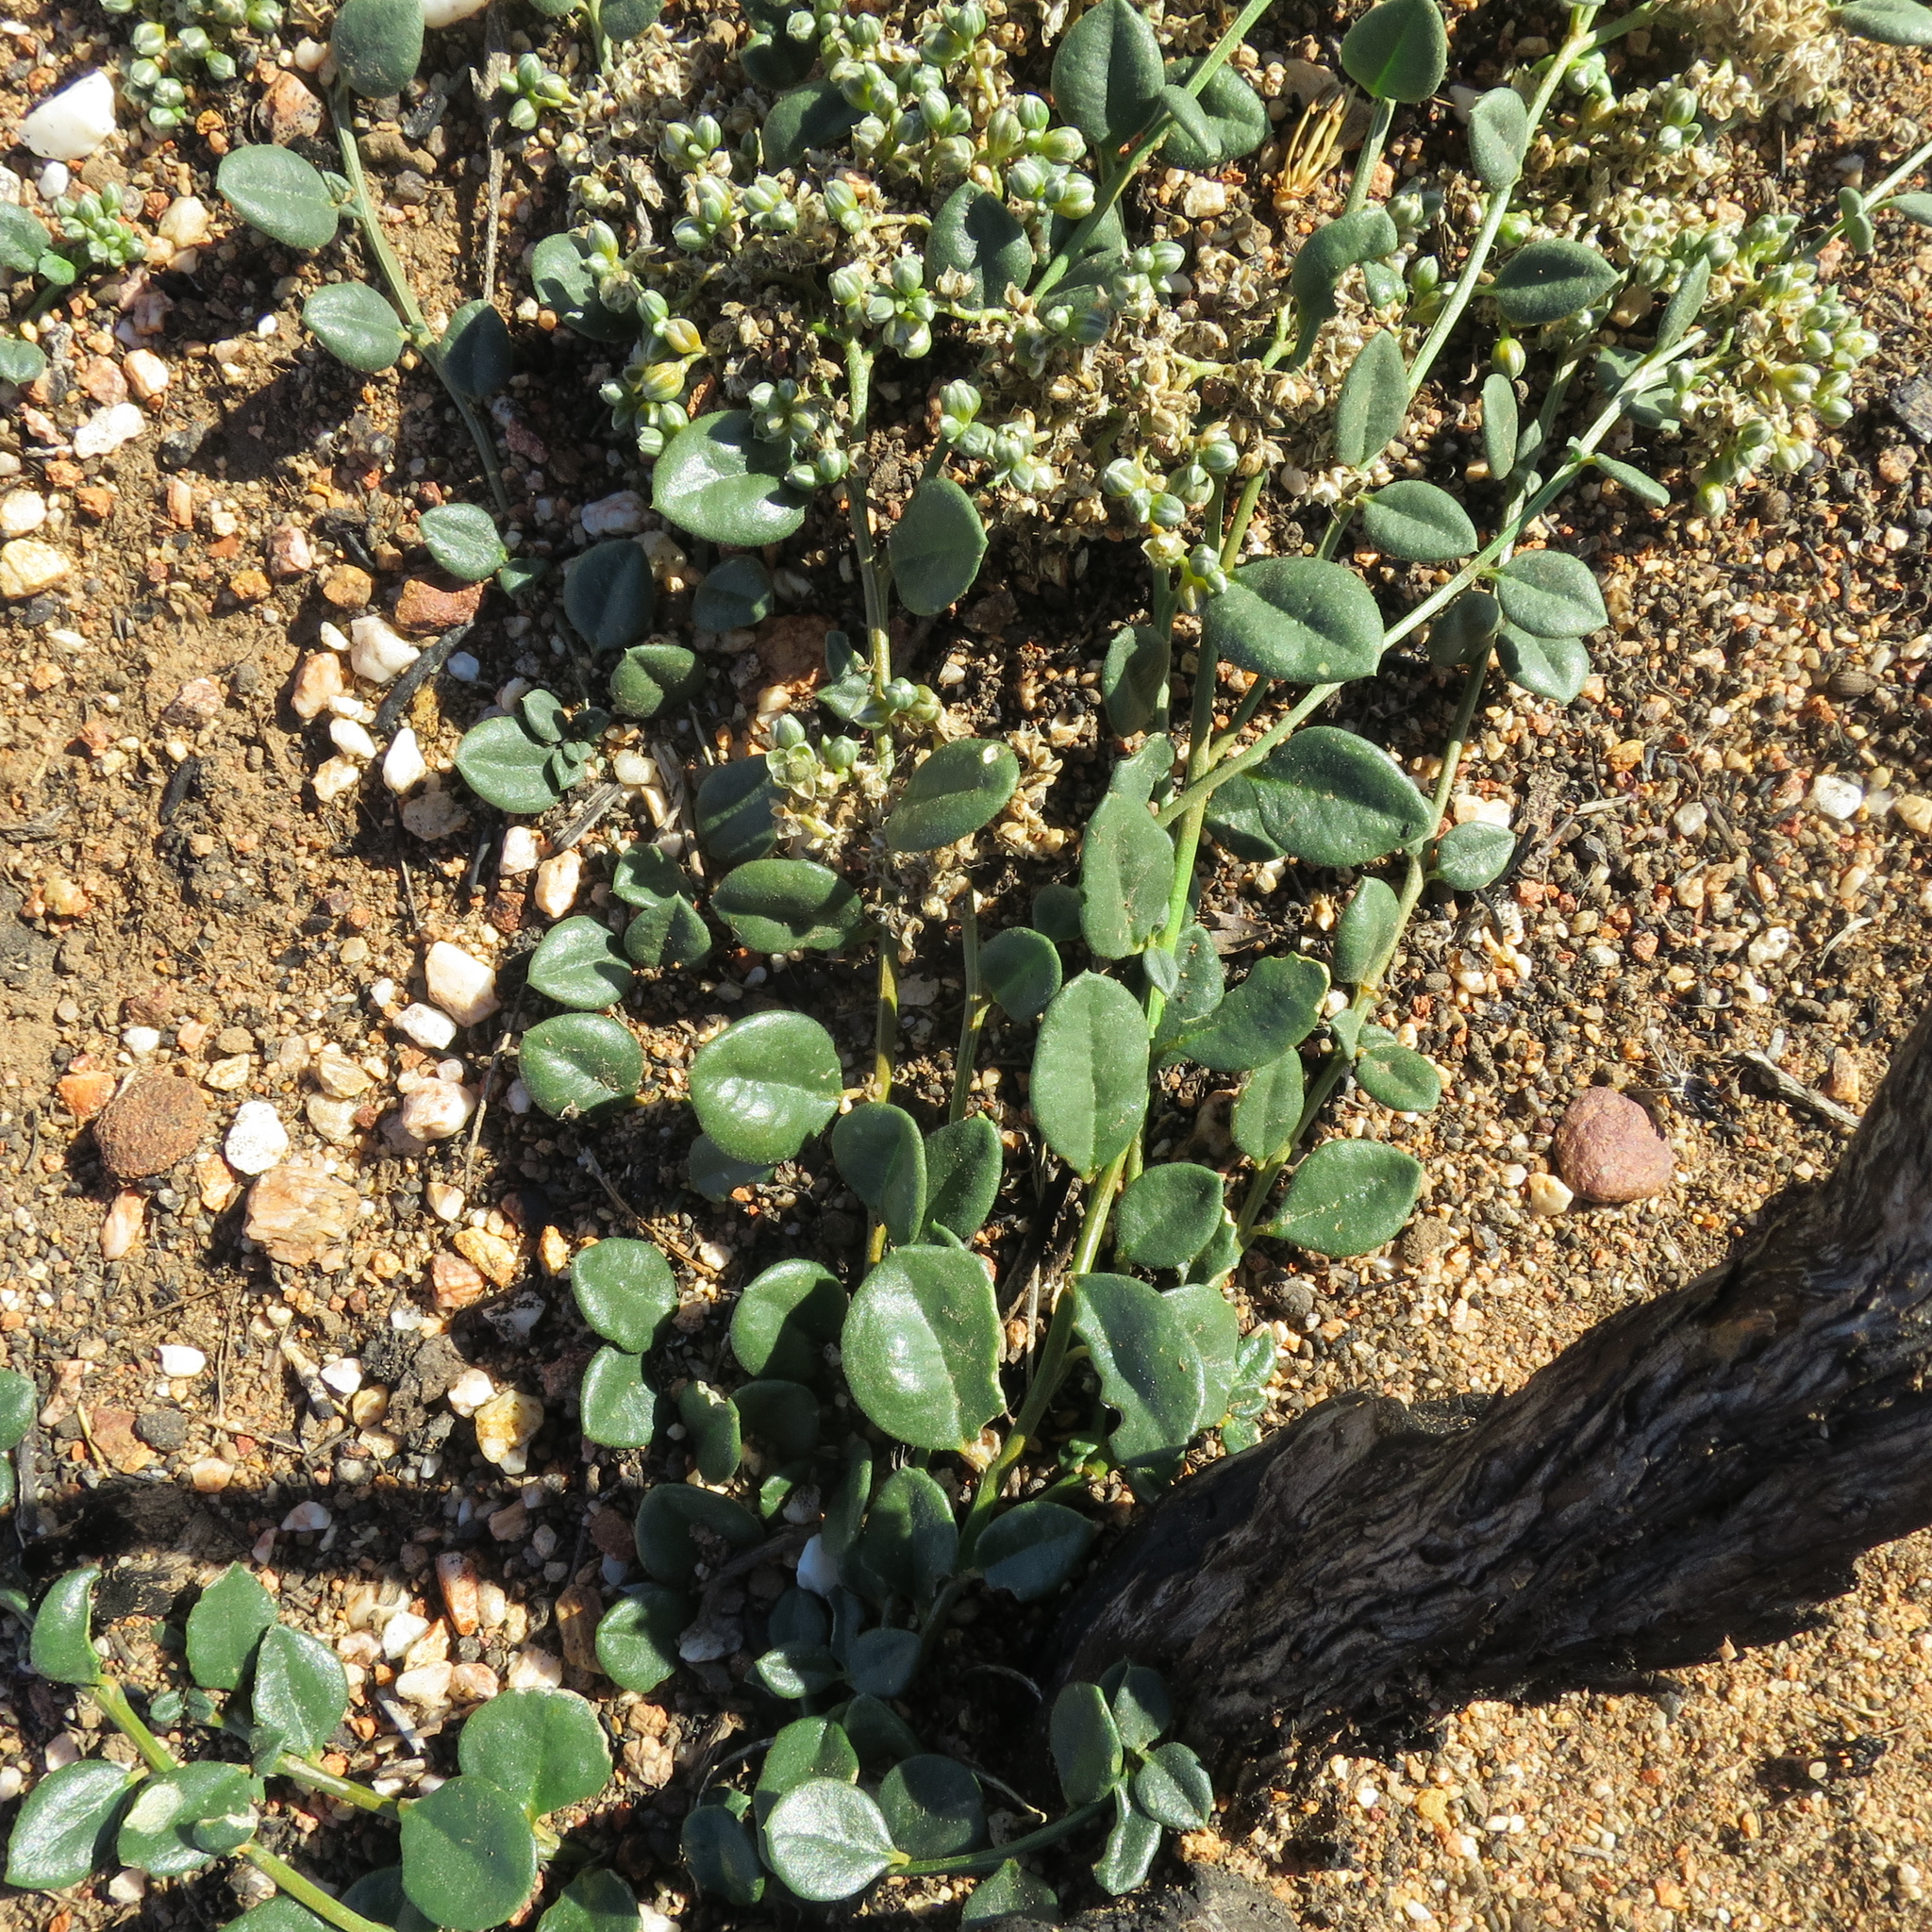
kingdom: Plantae
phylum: Tracheophyta
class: Magnoliopsida
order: Caryophyllales
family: Limeaceae
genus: Limeum
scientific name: Limeum telephioides
